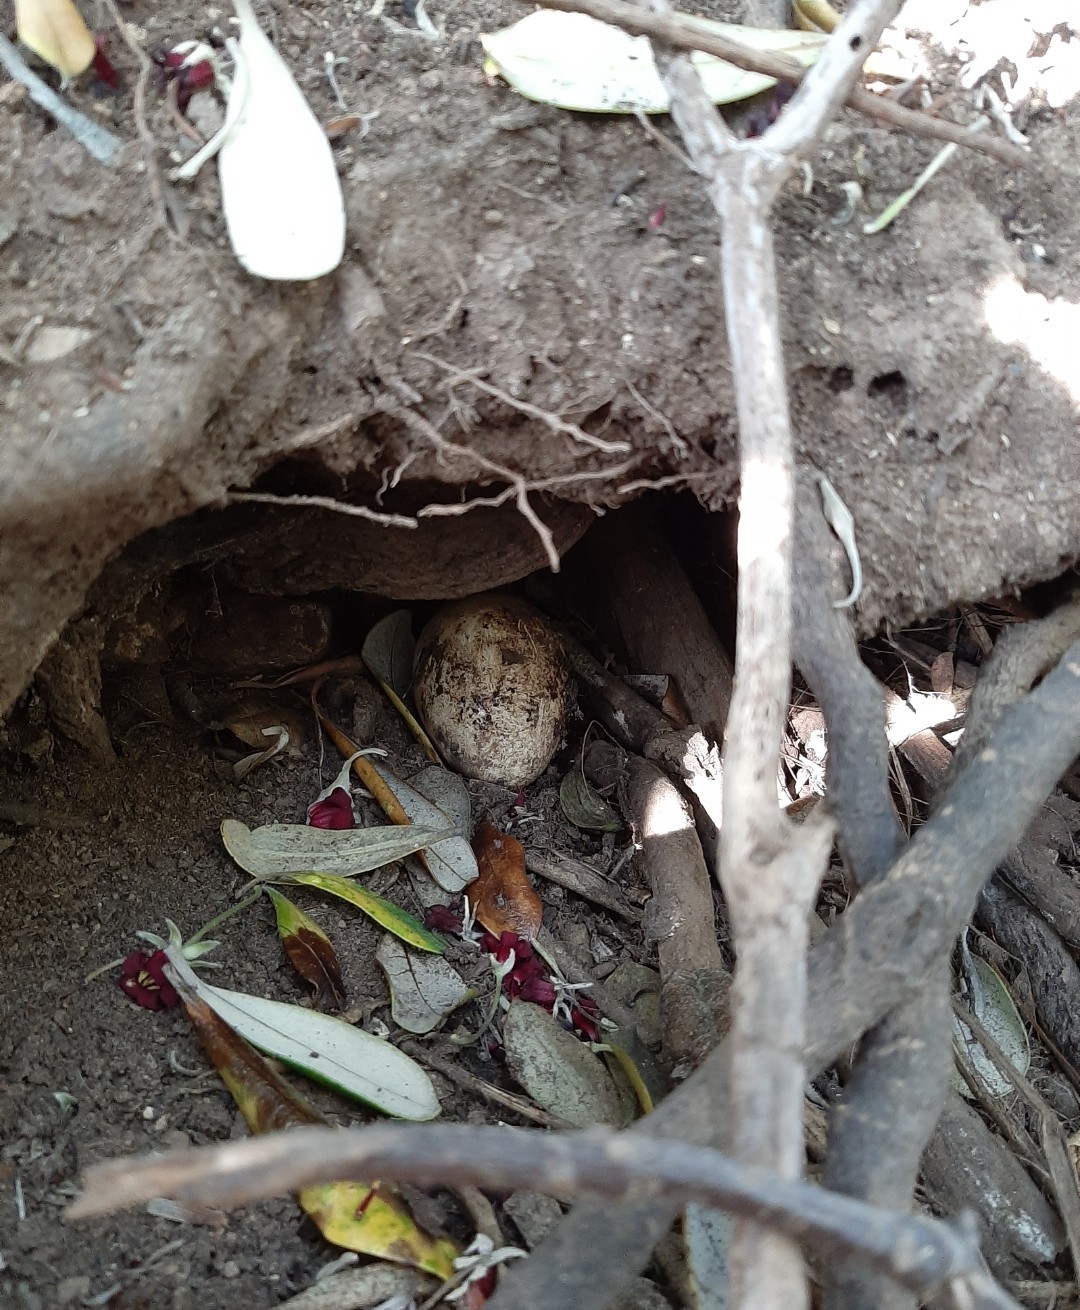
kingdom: Animalia
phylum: Chordata
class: Aves
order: Sphenisciformes
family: Spheniscidae
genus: Eudyptula
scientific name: Eudyptula minor
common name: Little penguin
